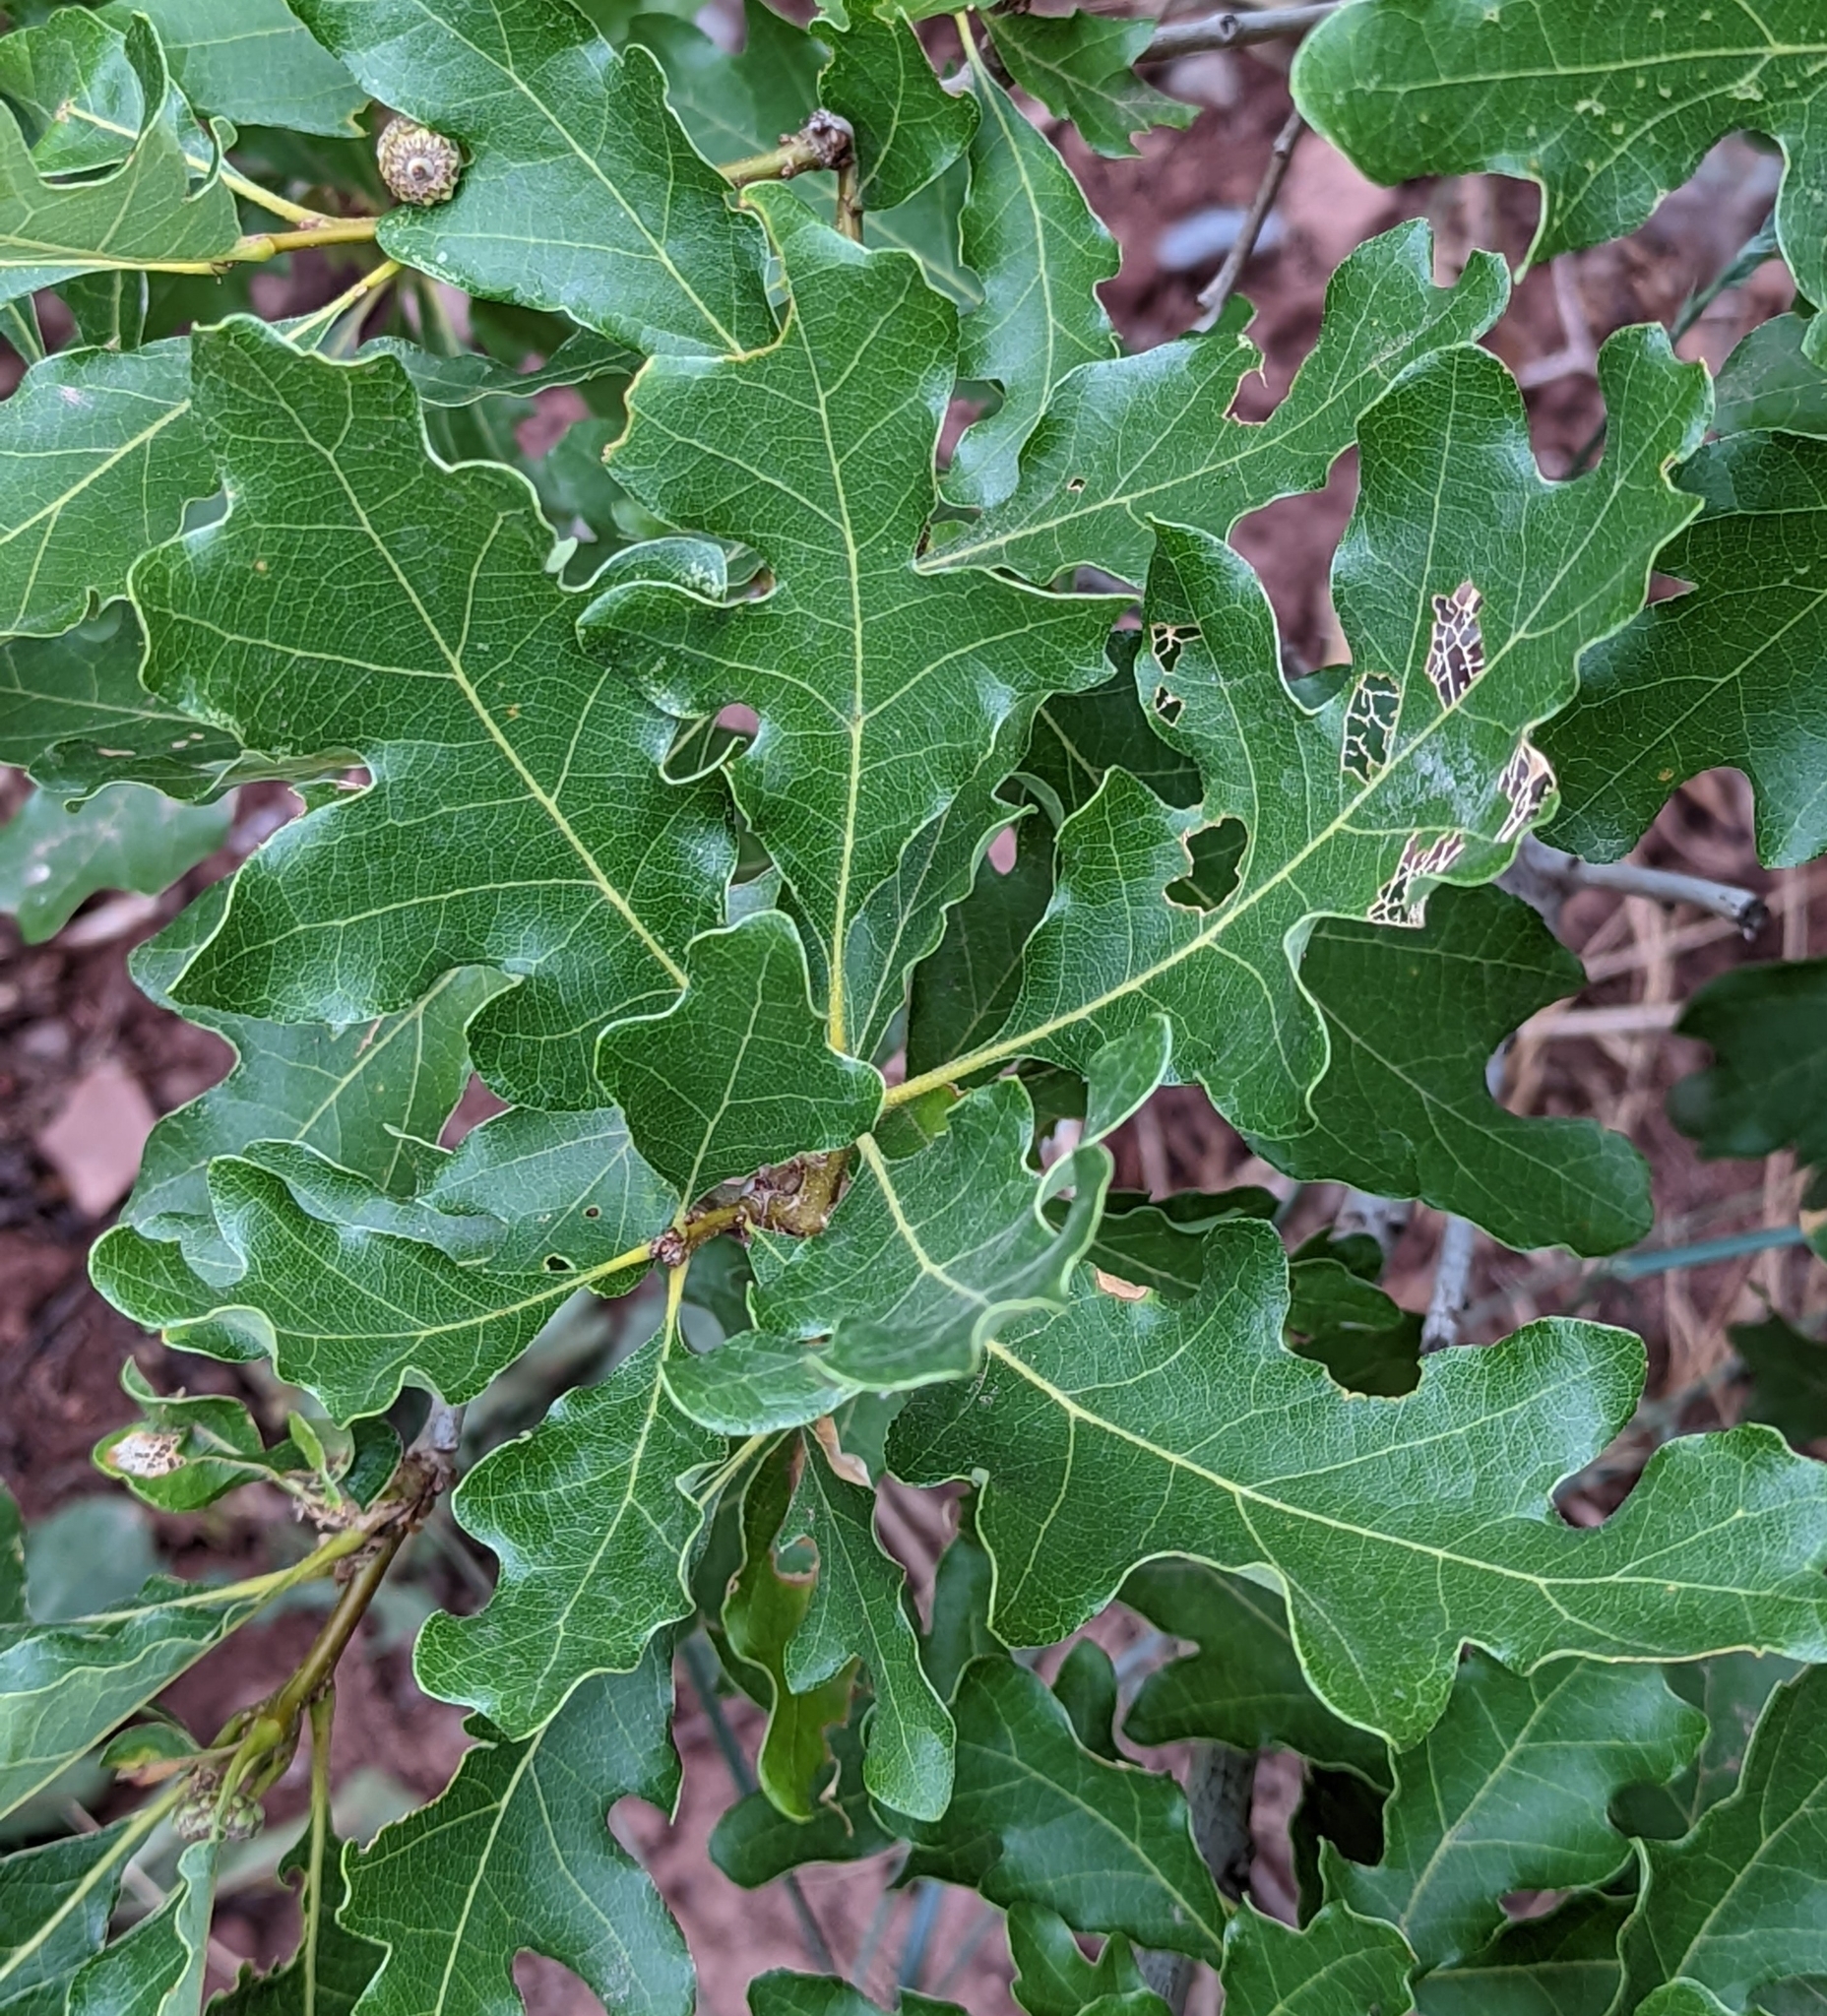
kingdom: Plantae
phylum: Tracheophyta
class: Magnoliopsida
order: Fagales
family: Fagaceae
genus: Quercus
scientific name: Quercus gambelii
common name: Gambel oak
